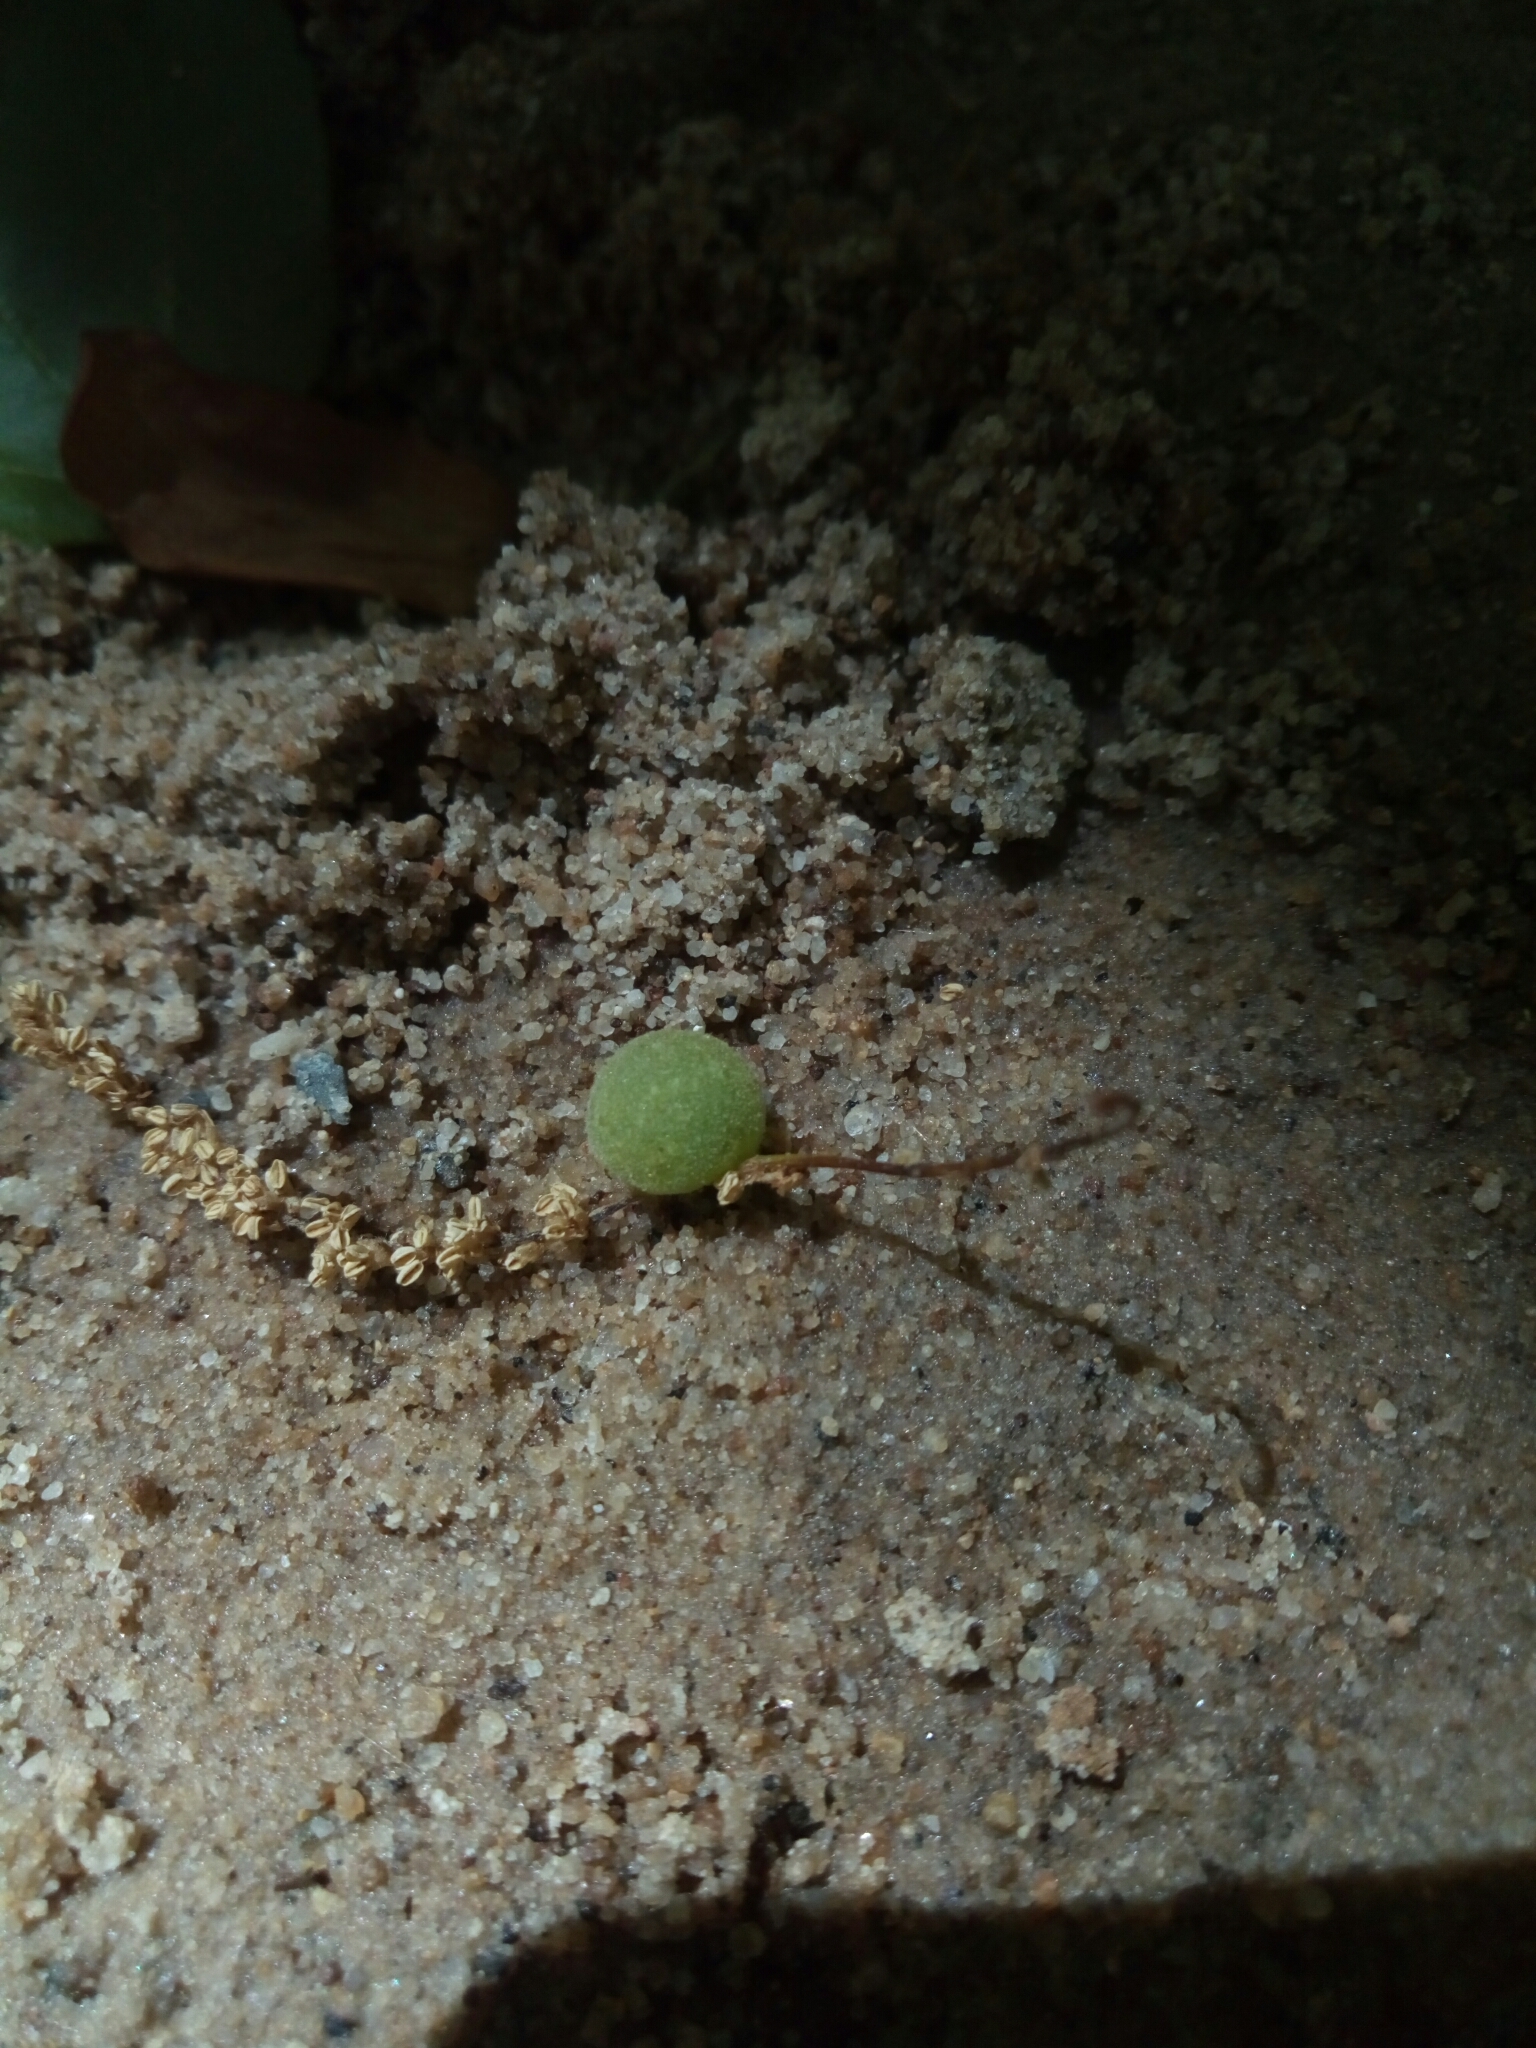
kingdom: Animalia
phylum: Arthropoda
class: Insecta
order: Hymenoptera
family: Cynipidae
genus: Dryocosmus
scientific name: Dryocosmus quercuspalustris
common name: Succulent oak gall wasp
